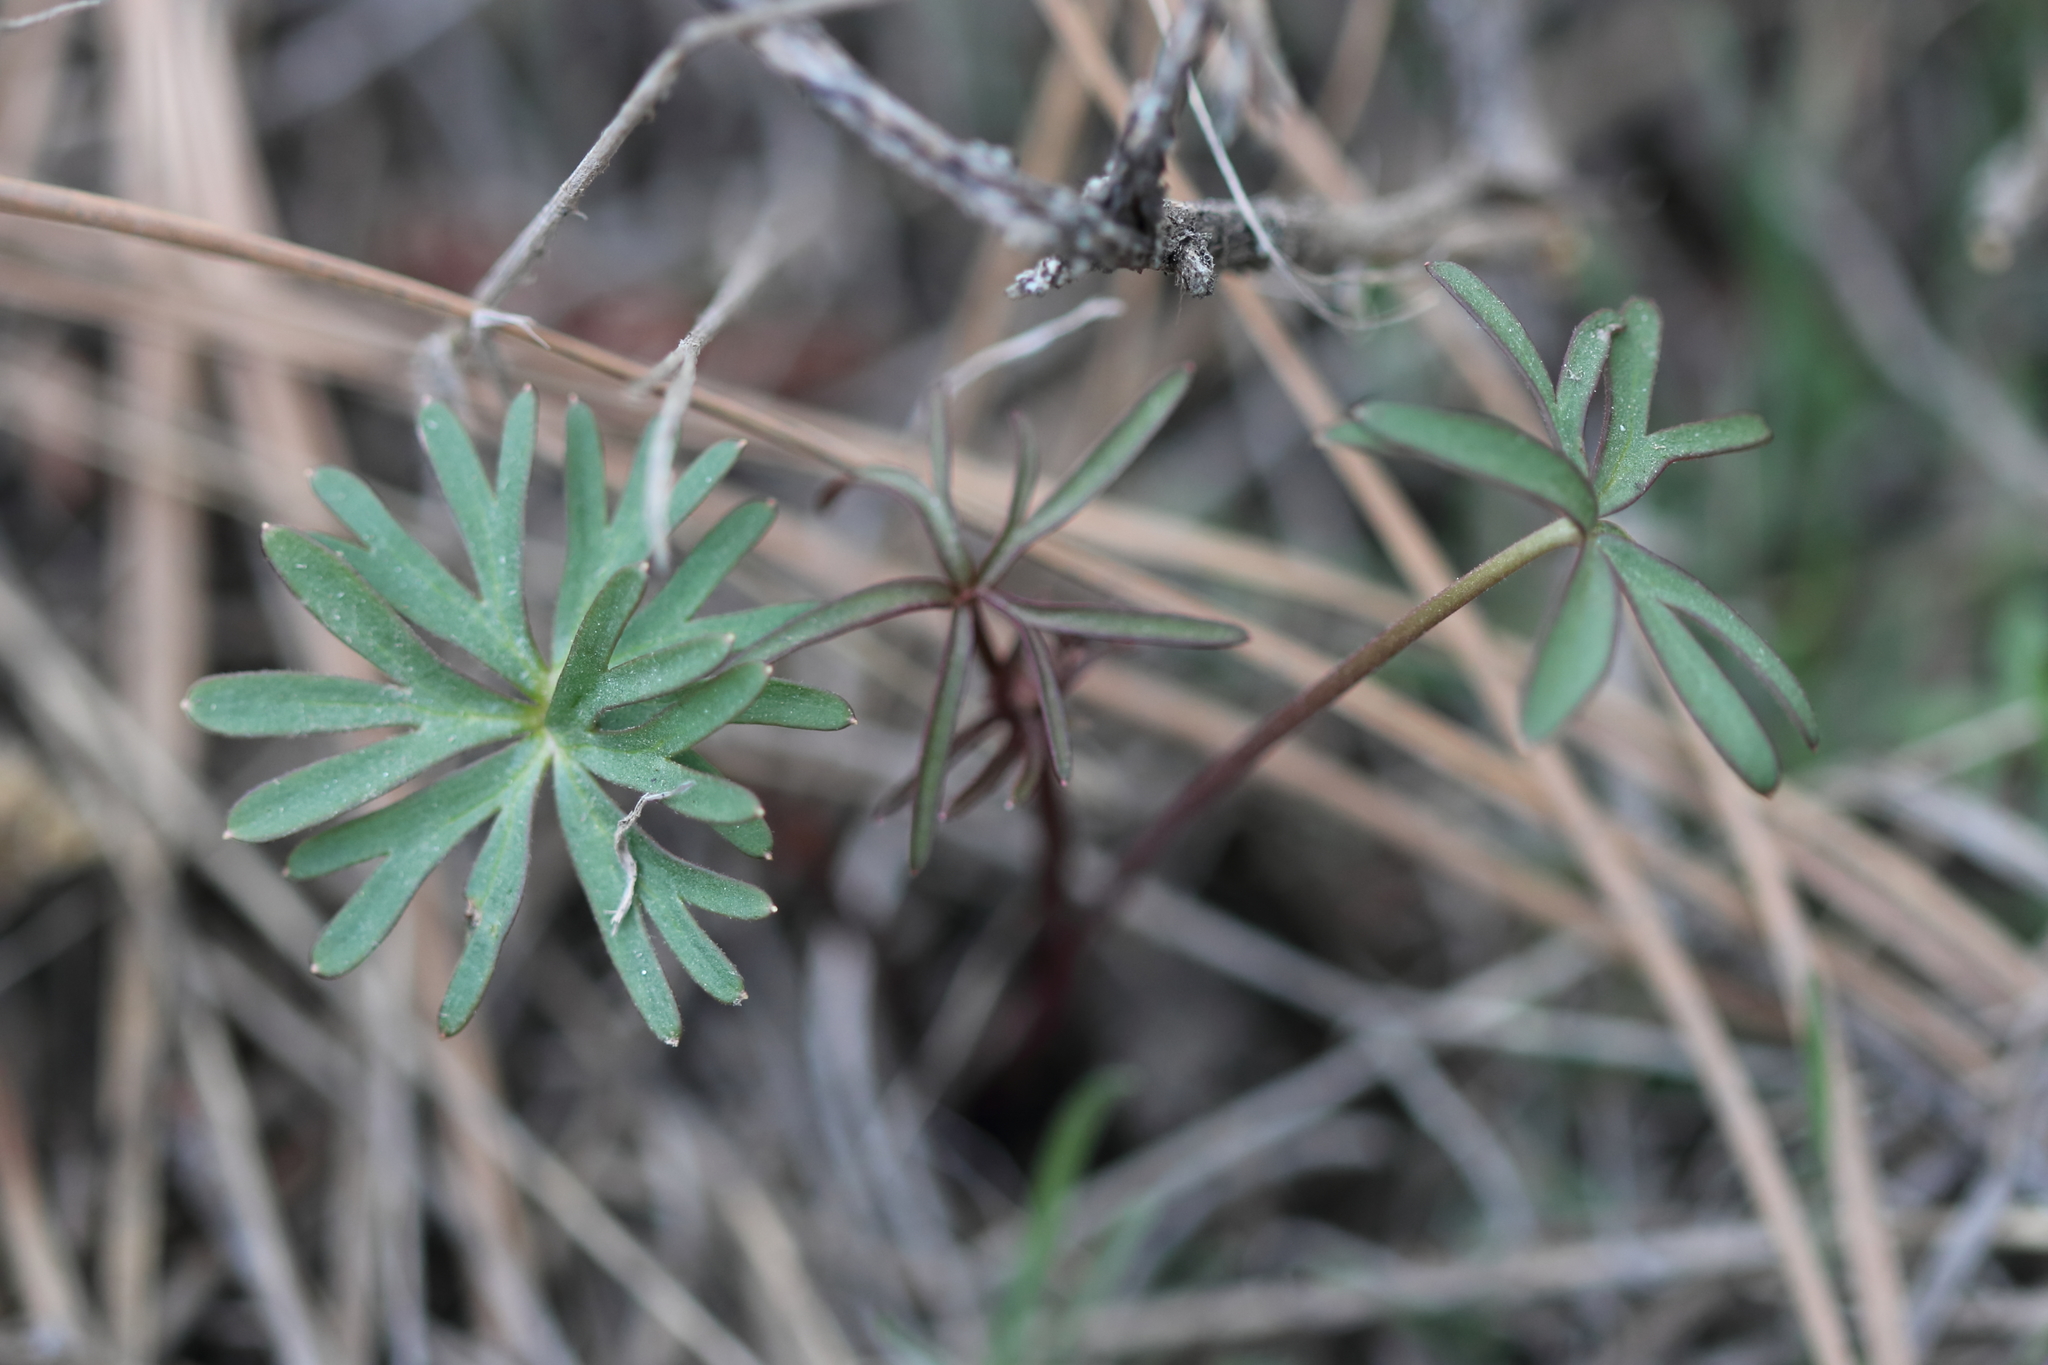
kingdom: Plantae
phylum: Tracheophyta
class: Magnoliopsida
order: Ranunculales
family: Ranunculaceae
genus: Delphinium
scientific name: Delphinium nuttallianum
